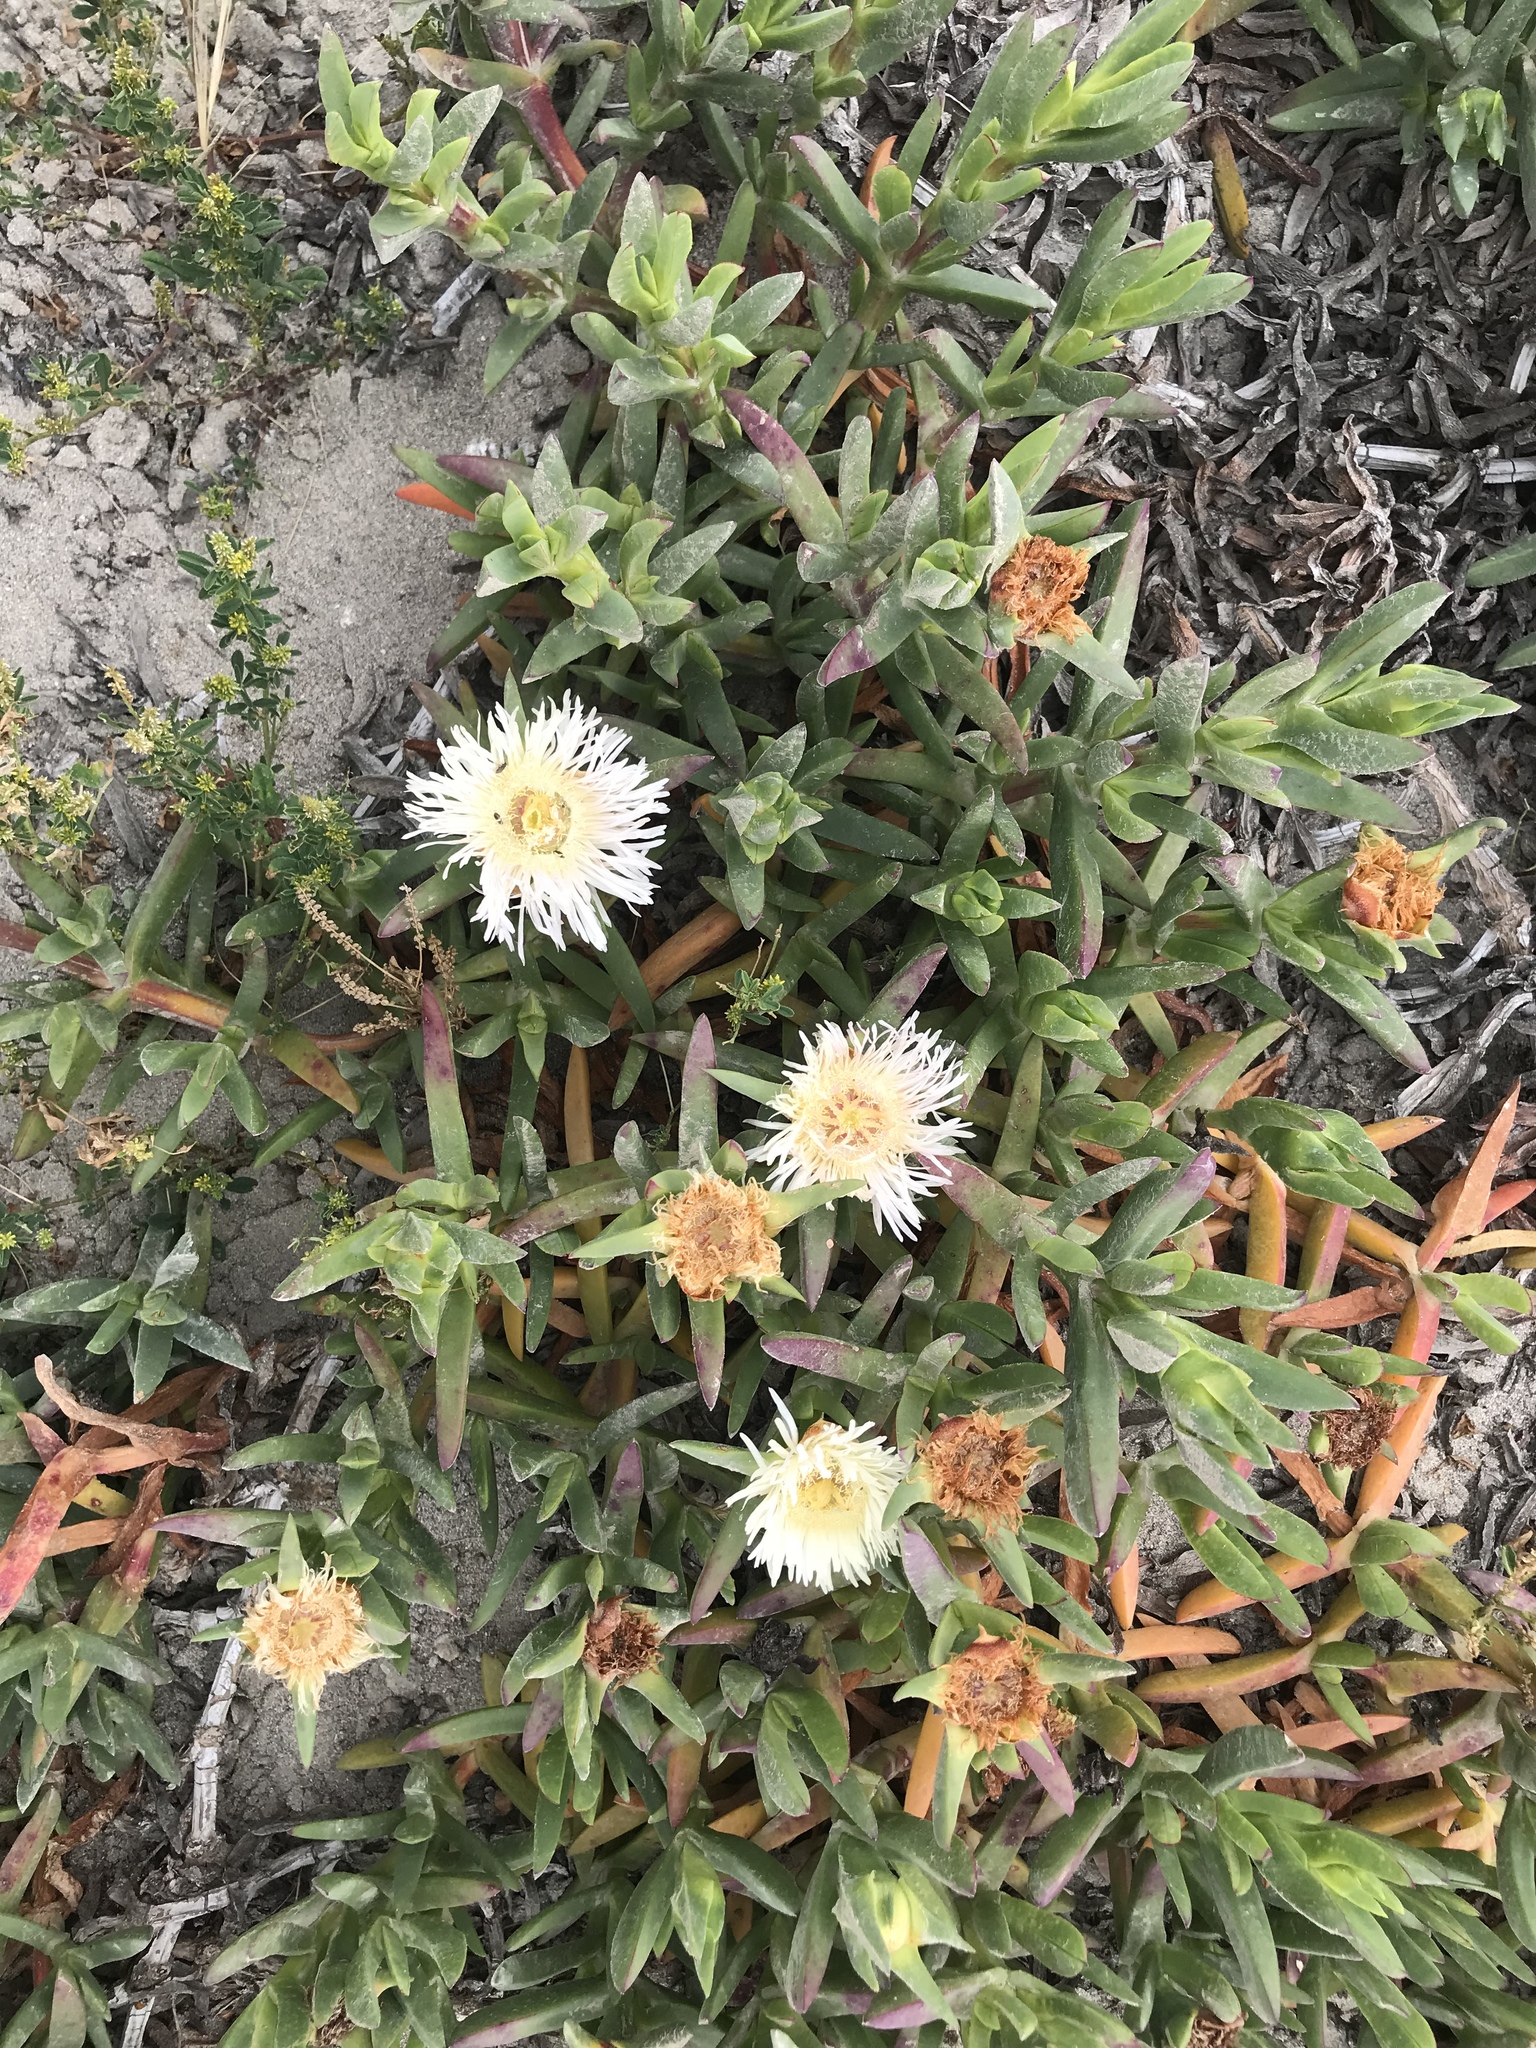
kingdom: Plantae
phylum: Tracheophyta
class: Magnoliopsida
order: Caryophyllales
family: Aizoaceae
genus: Carpobrotus
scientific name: Carpobrotus edulis
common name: Hottentot-fig
